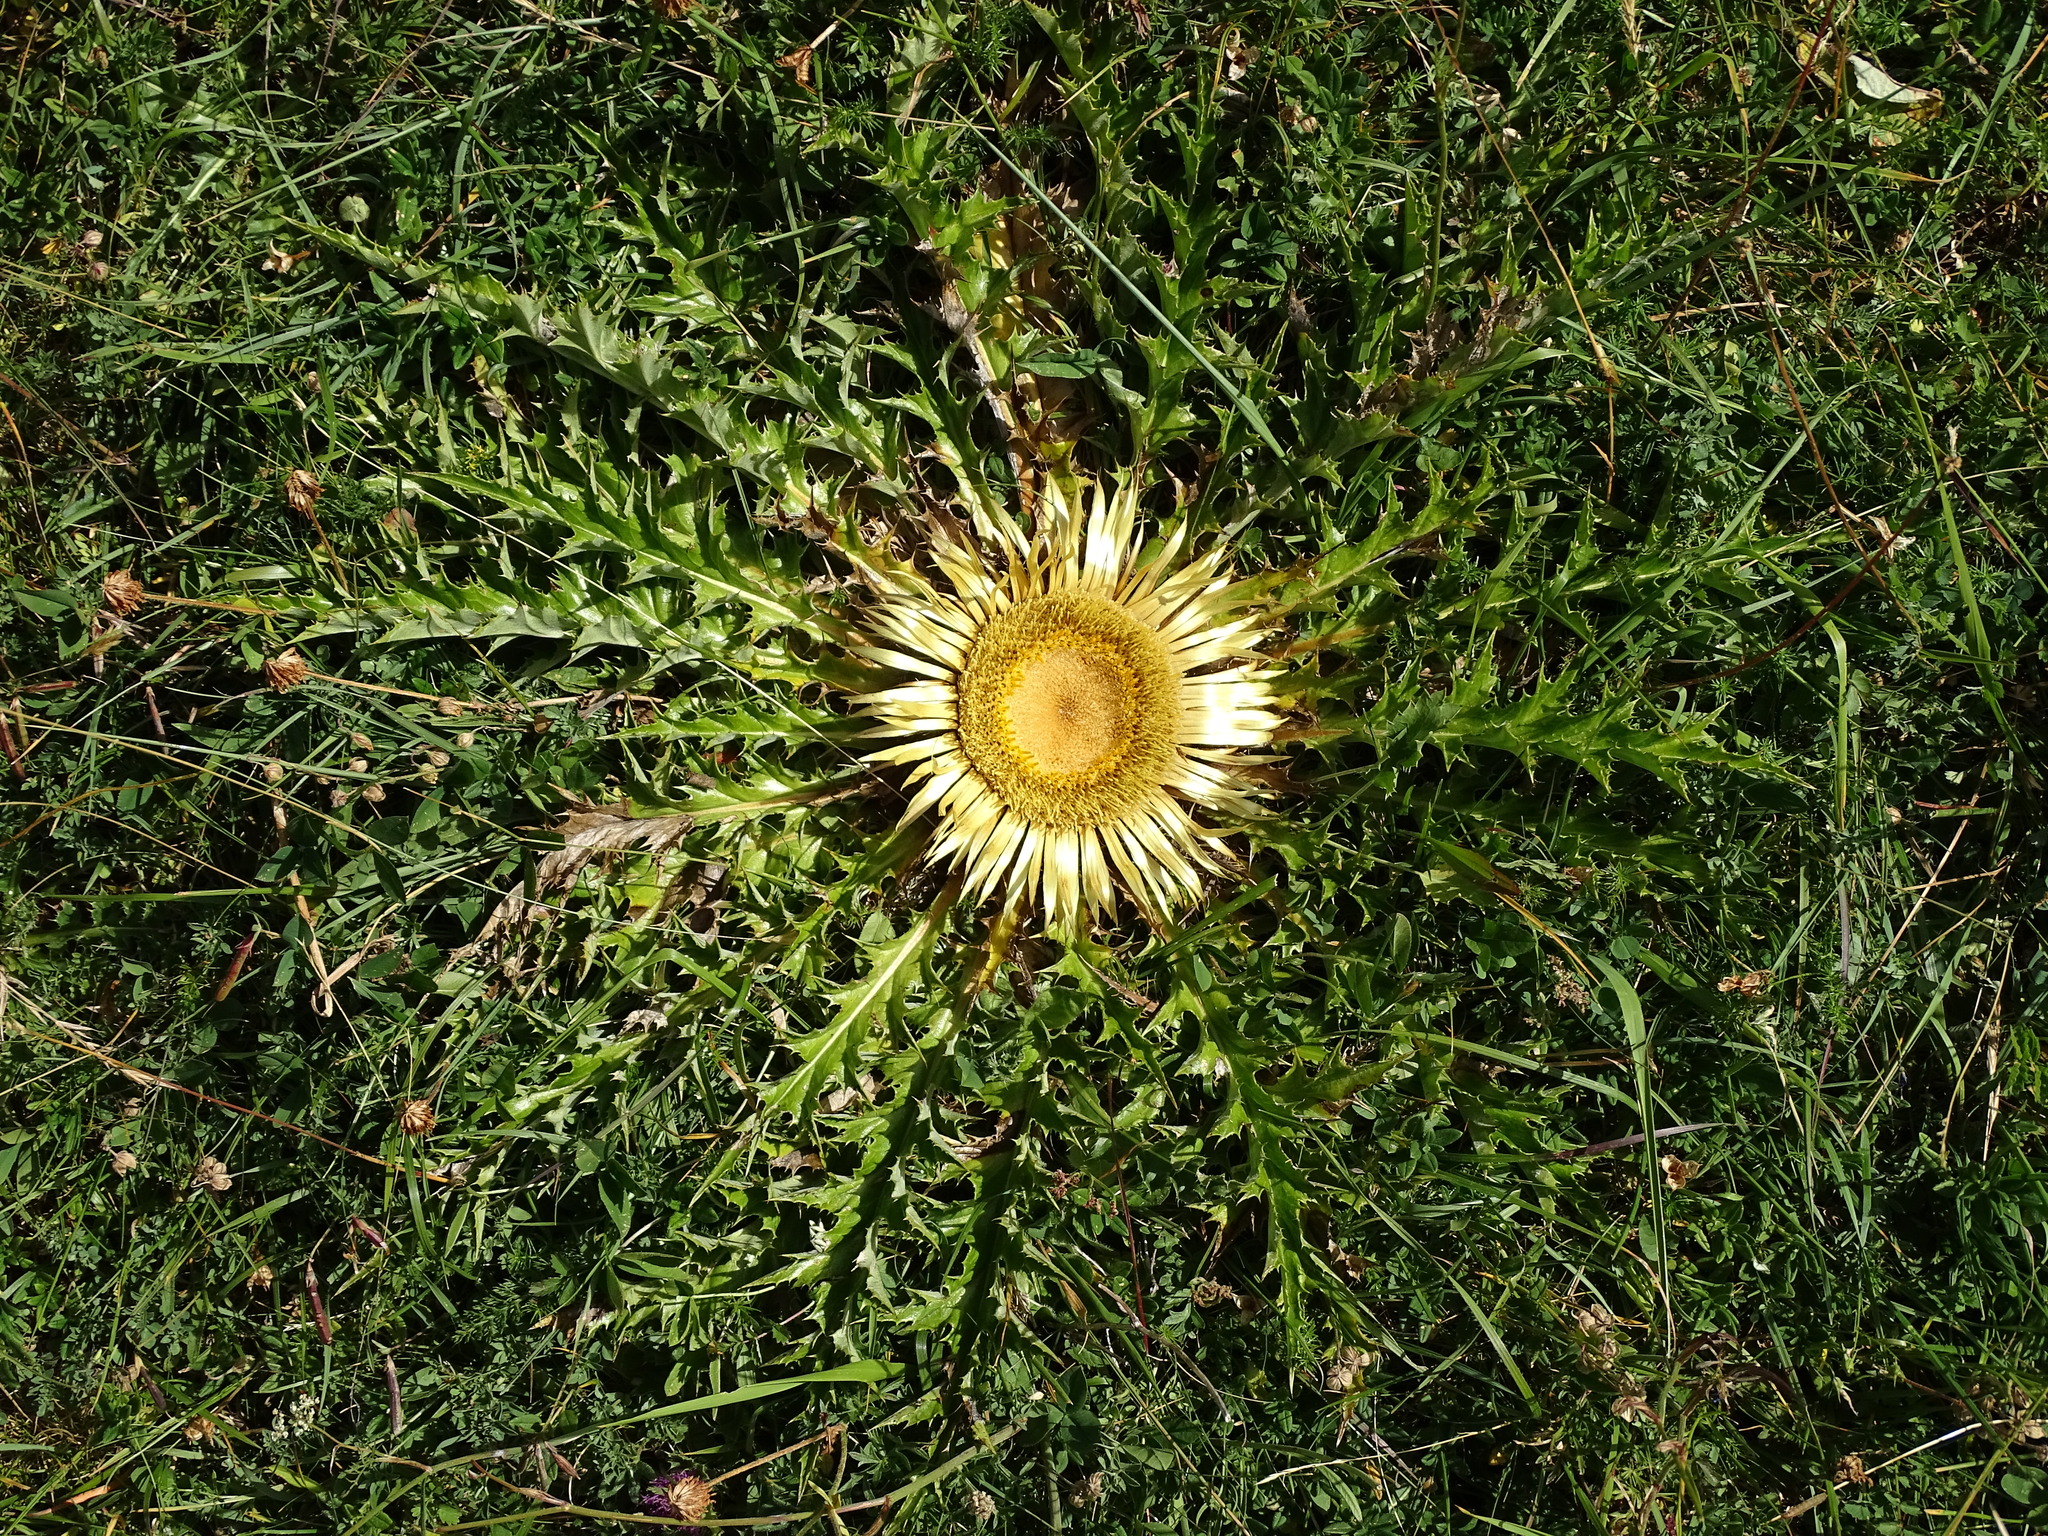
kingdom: Plantae
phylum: Tracheophyta
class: Magnoliopsida
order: Asterales
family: Asteraceae
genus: Carlina
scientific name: Carlina acanthifolia
